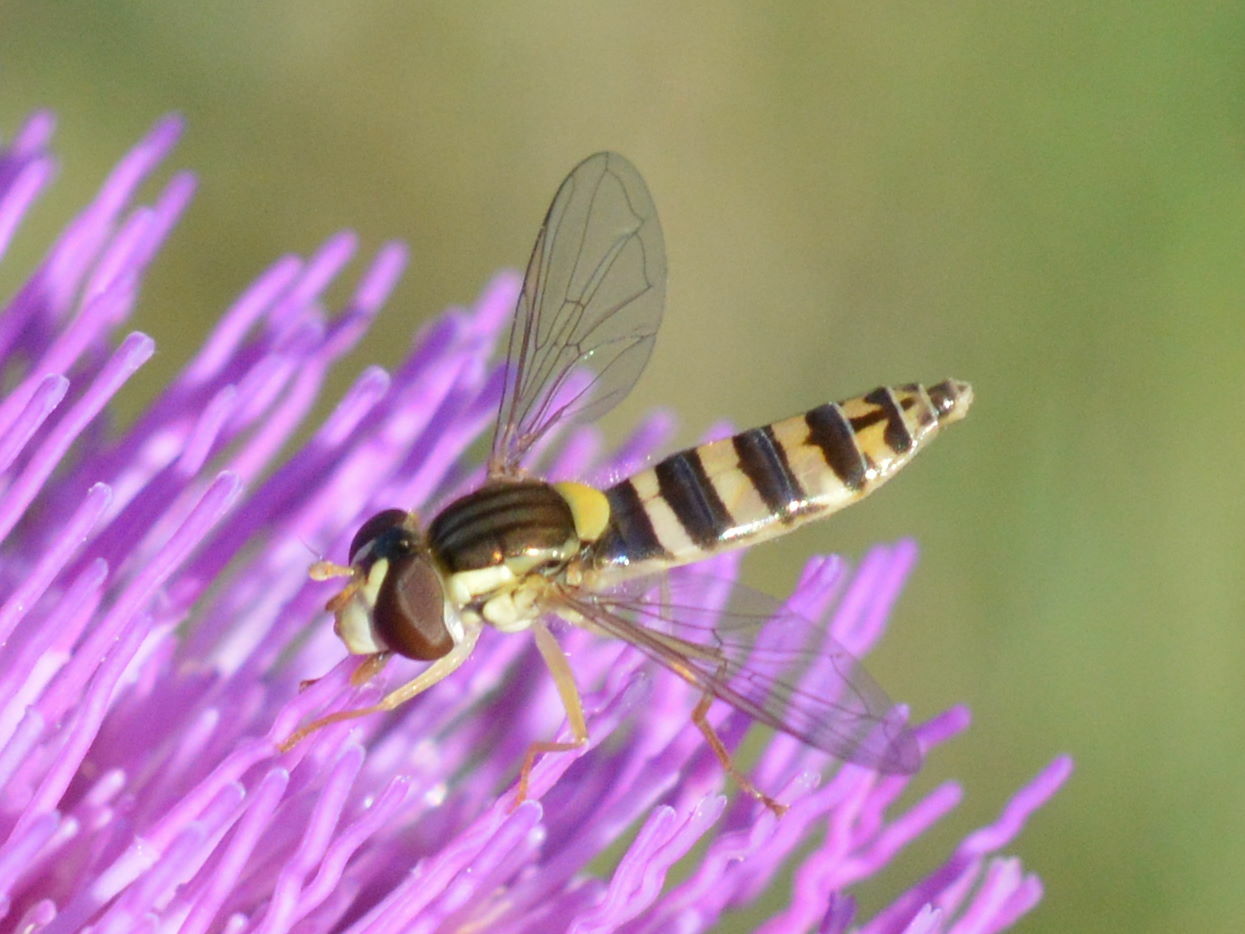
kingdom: Animalia
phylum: Arthropoda
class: Insecta
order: Diptera
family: Syrphidae
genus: Sphaerophoria
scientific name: Sphaerophoria
